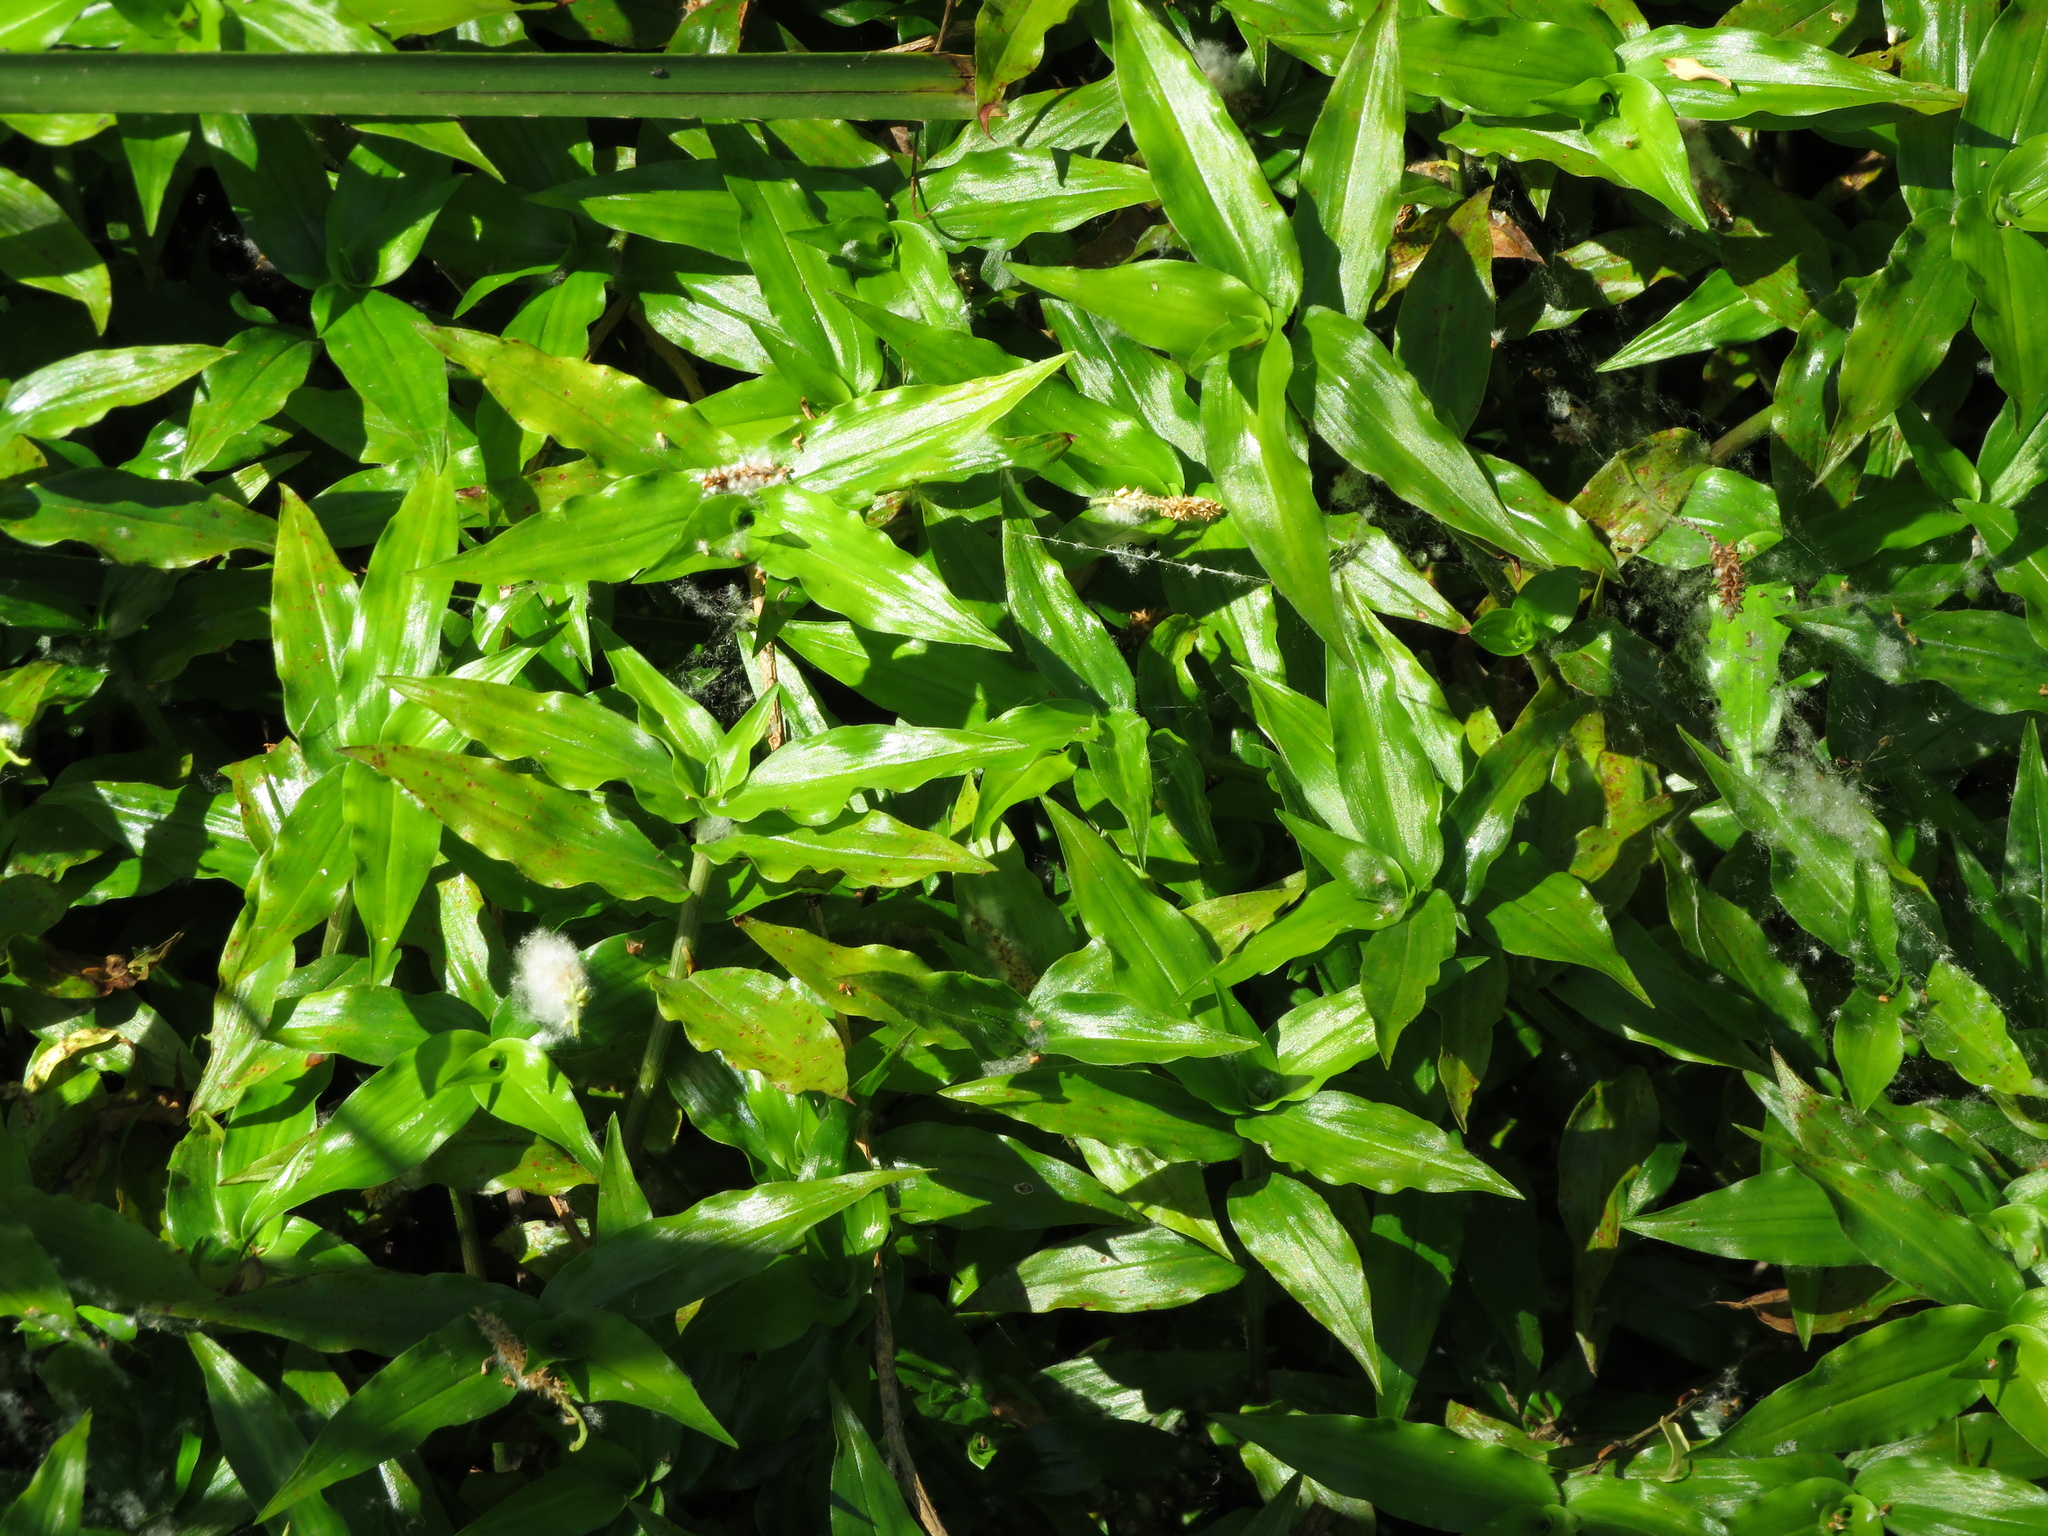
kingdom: Plantae
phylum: Tracheophyta
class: Liliopsida
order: Commelinales
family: Commelinaceae
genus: Tradescantia
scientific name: Tradescantia fluminensis
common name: Wandering-jew
